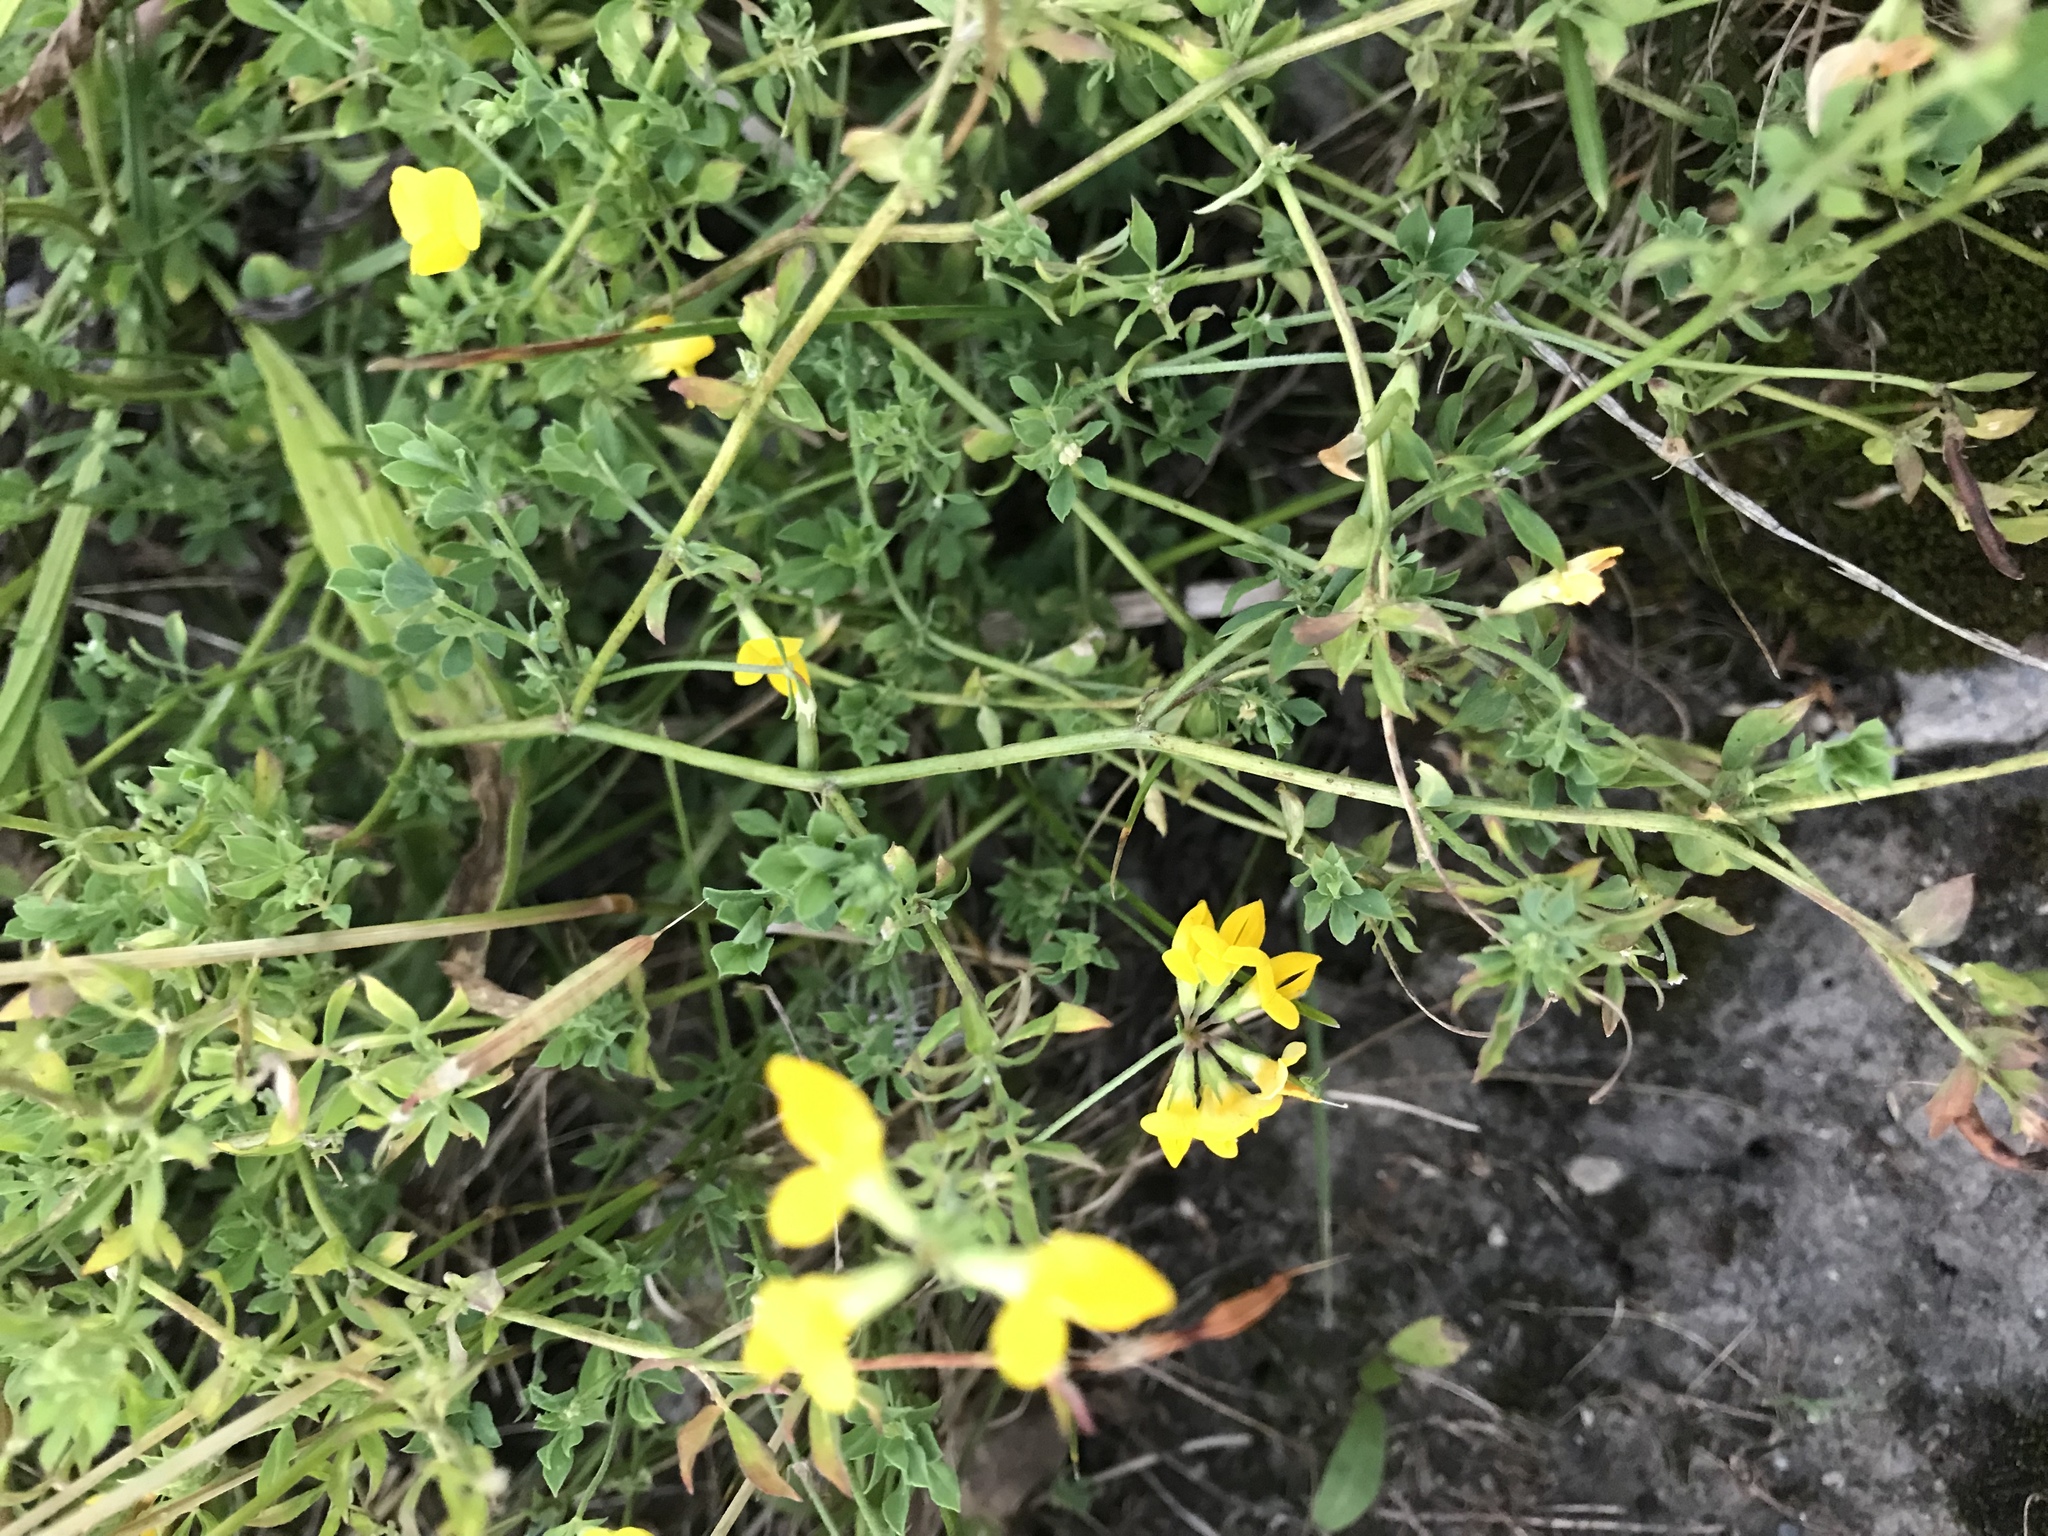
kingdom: Plantae
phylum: Tracheophyta
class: Magnoliopsida
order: Fabales
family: Fabaceae
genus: Lotus
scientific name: Lotus corniculatus
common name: Common bird's-foot-trefoil
